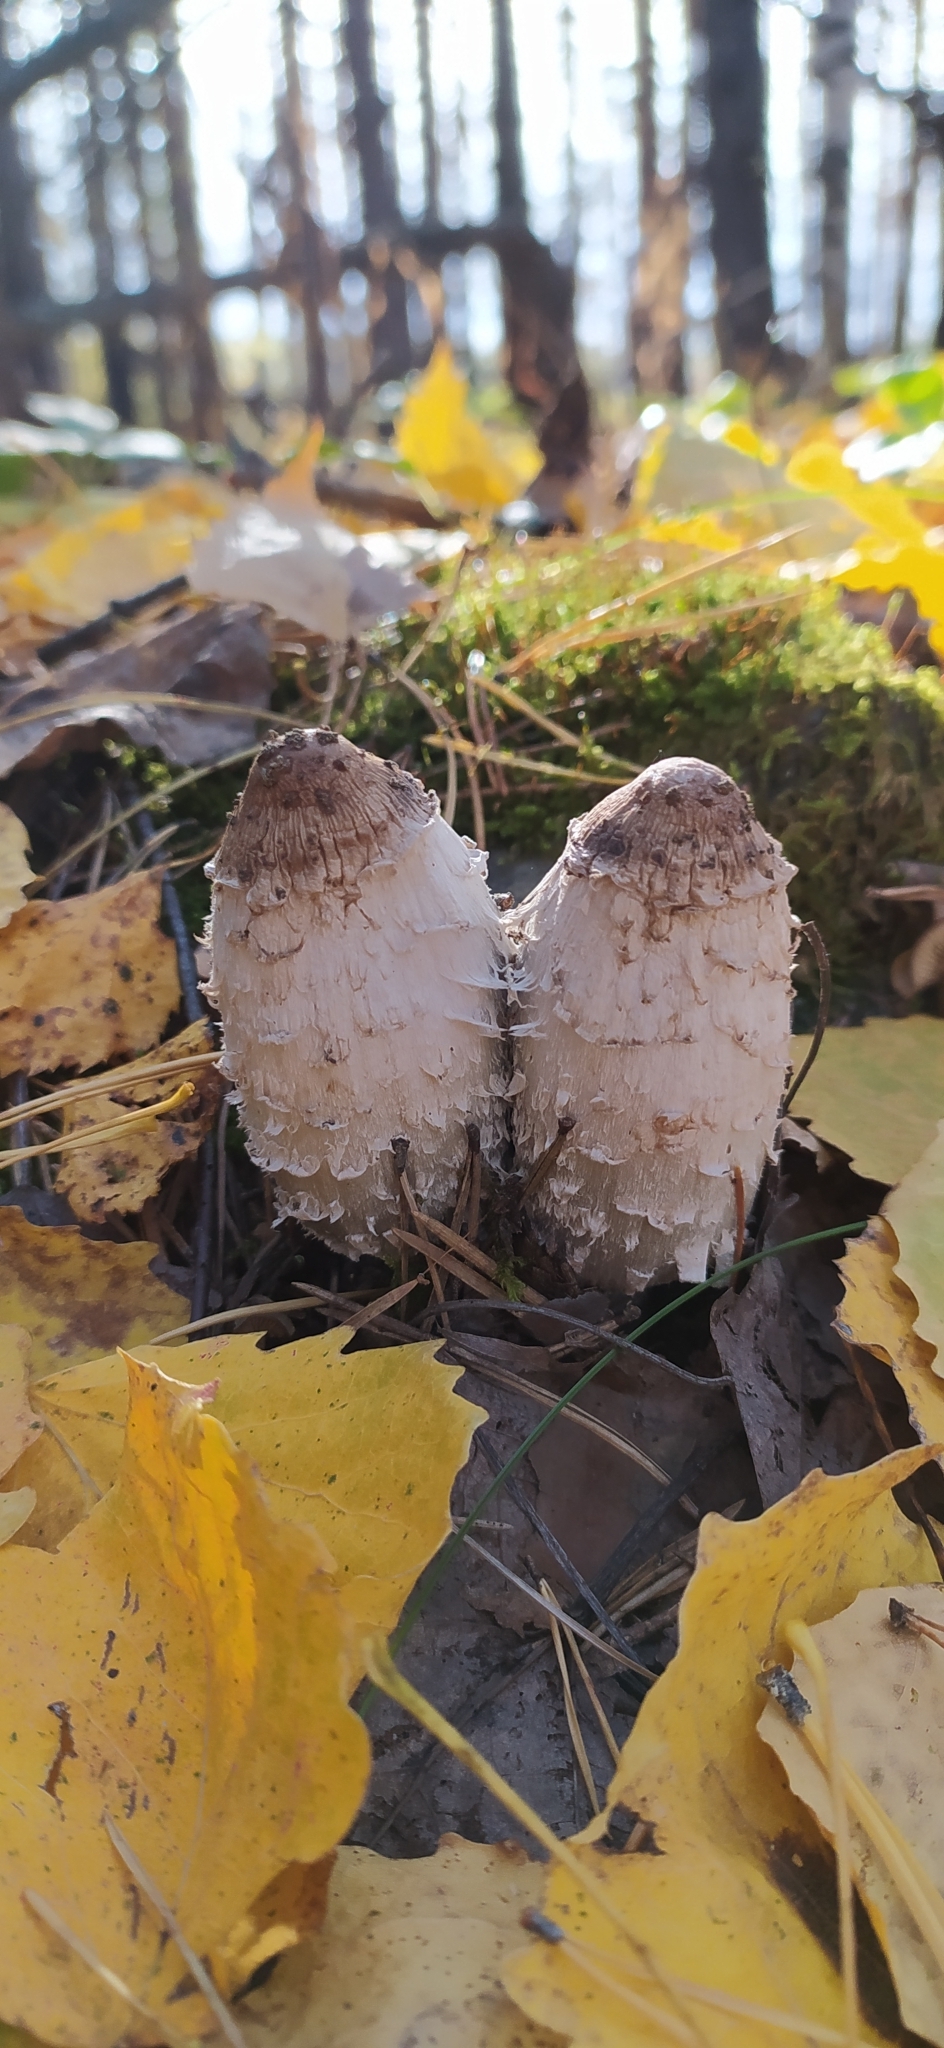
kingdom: Fungi
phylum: Basidiomycota
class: Agaricomycetes
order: Agaricales
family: Agaricaceae
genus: Coprinus
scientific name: Coprinus comatus
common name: Lawyer's wig
